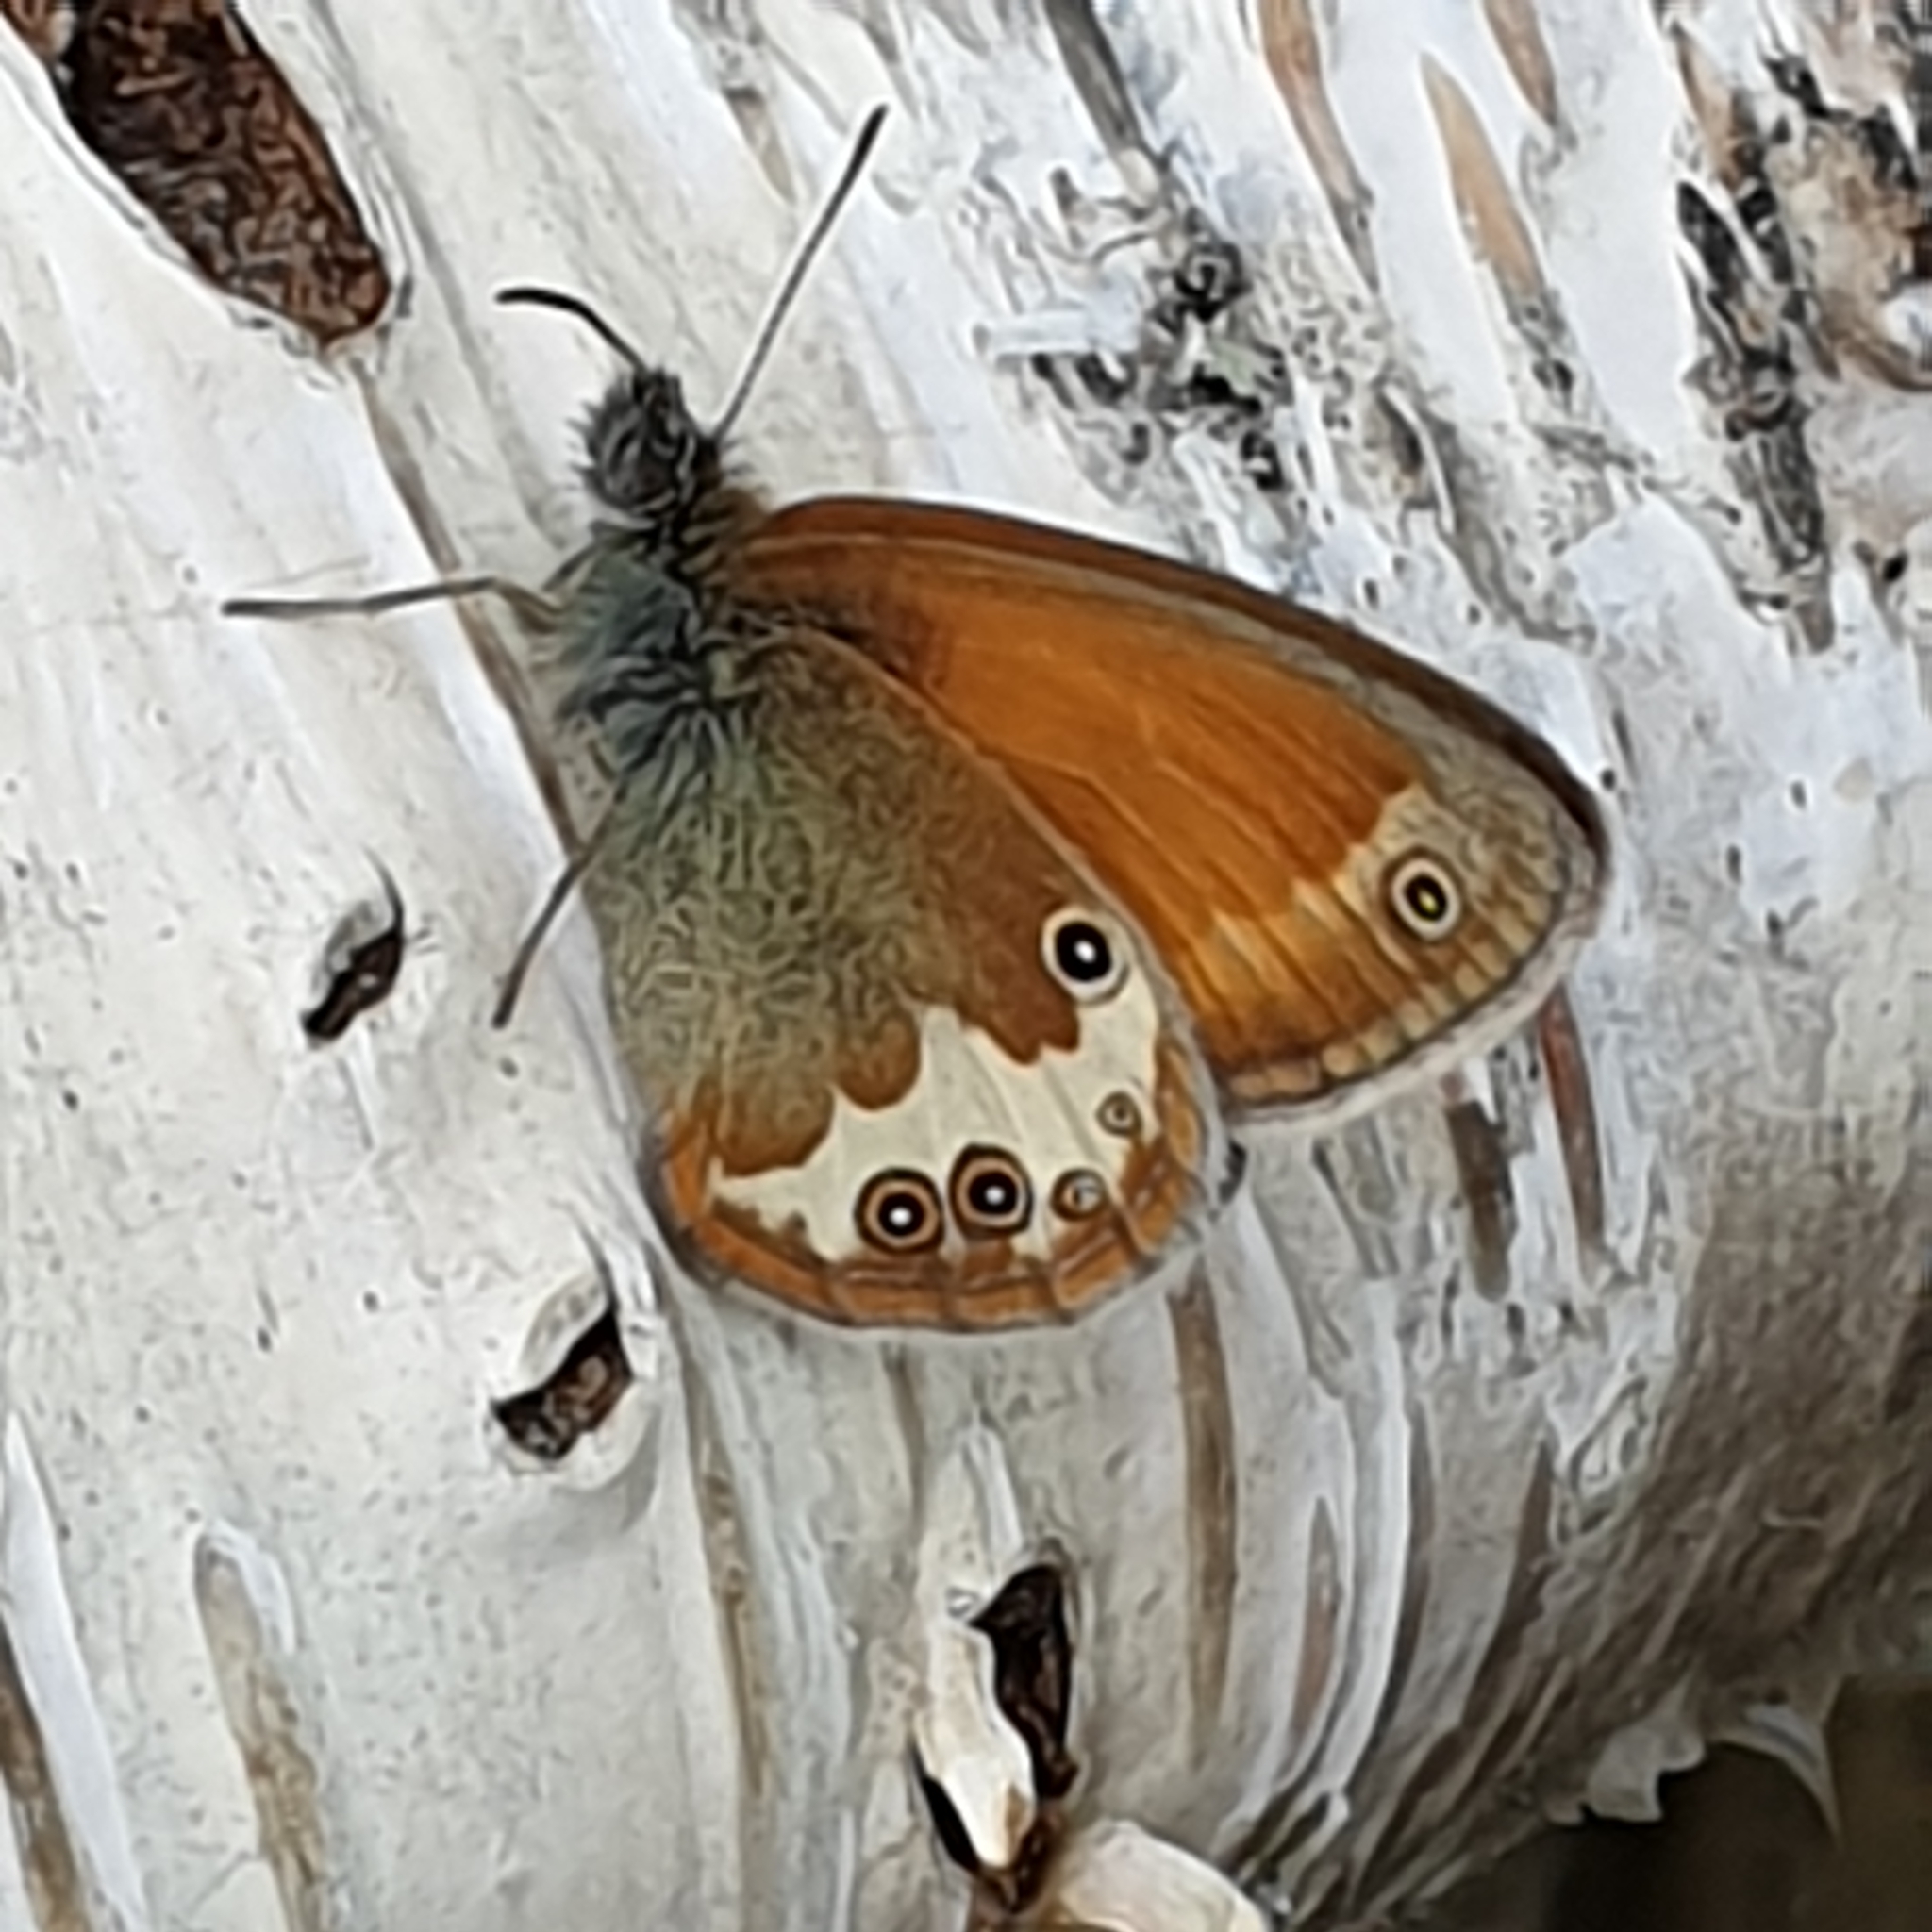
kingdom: Animalia
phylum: Arthropoda
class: Insecta
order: Lepidoptera
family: Nymphalidae
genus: Coenonympha
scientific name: Coenonympha arcania
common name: Pearly heath
